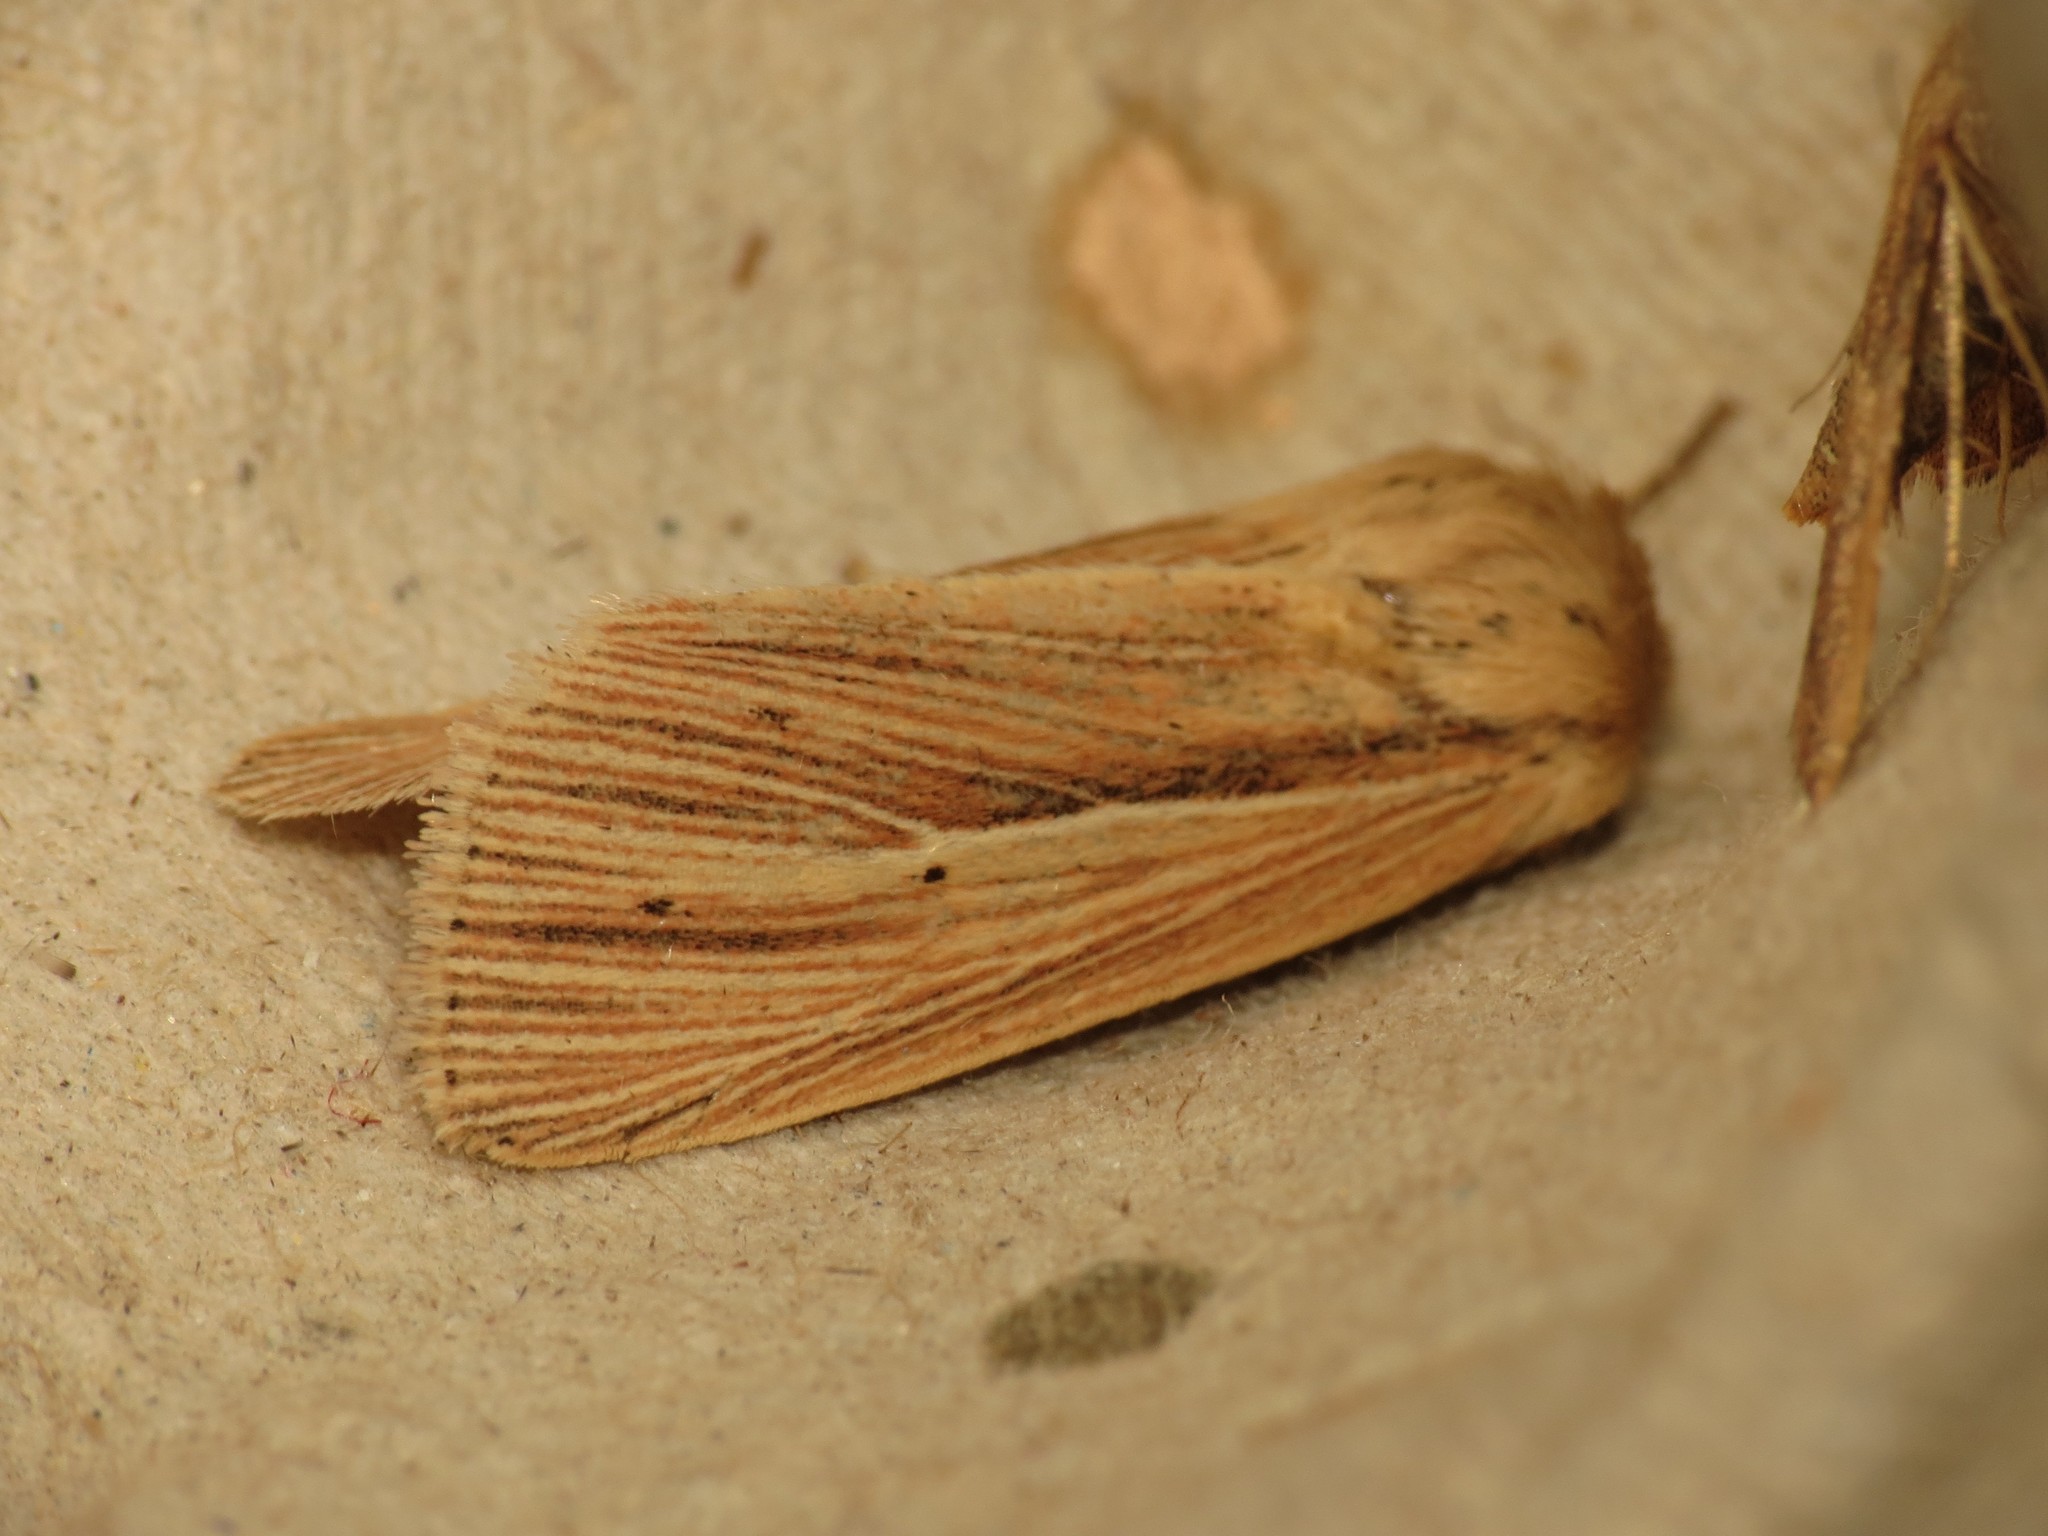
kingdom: Animalia
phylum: Arthropoda
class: Insecta
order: Lepidoptera
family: Noctuidae
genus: Mythimna
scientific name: Mythimna impura
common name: Smoky wainscot
